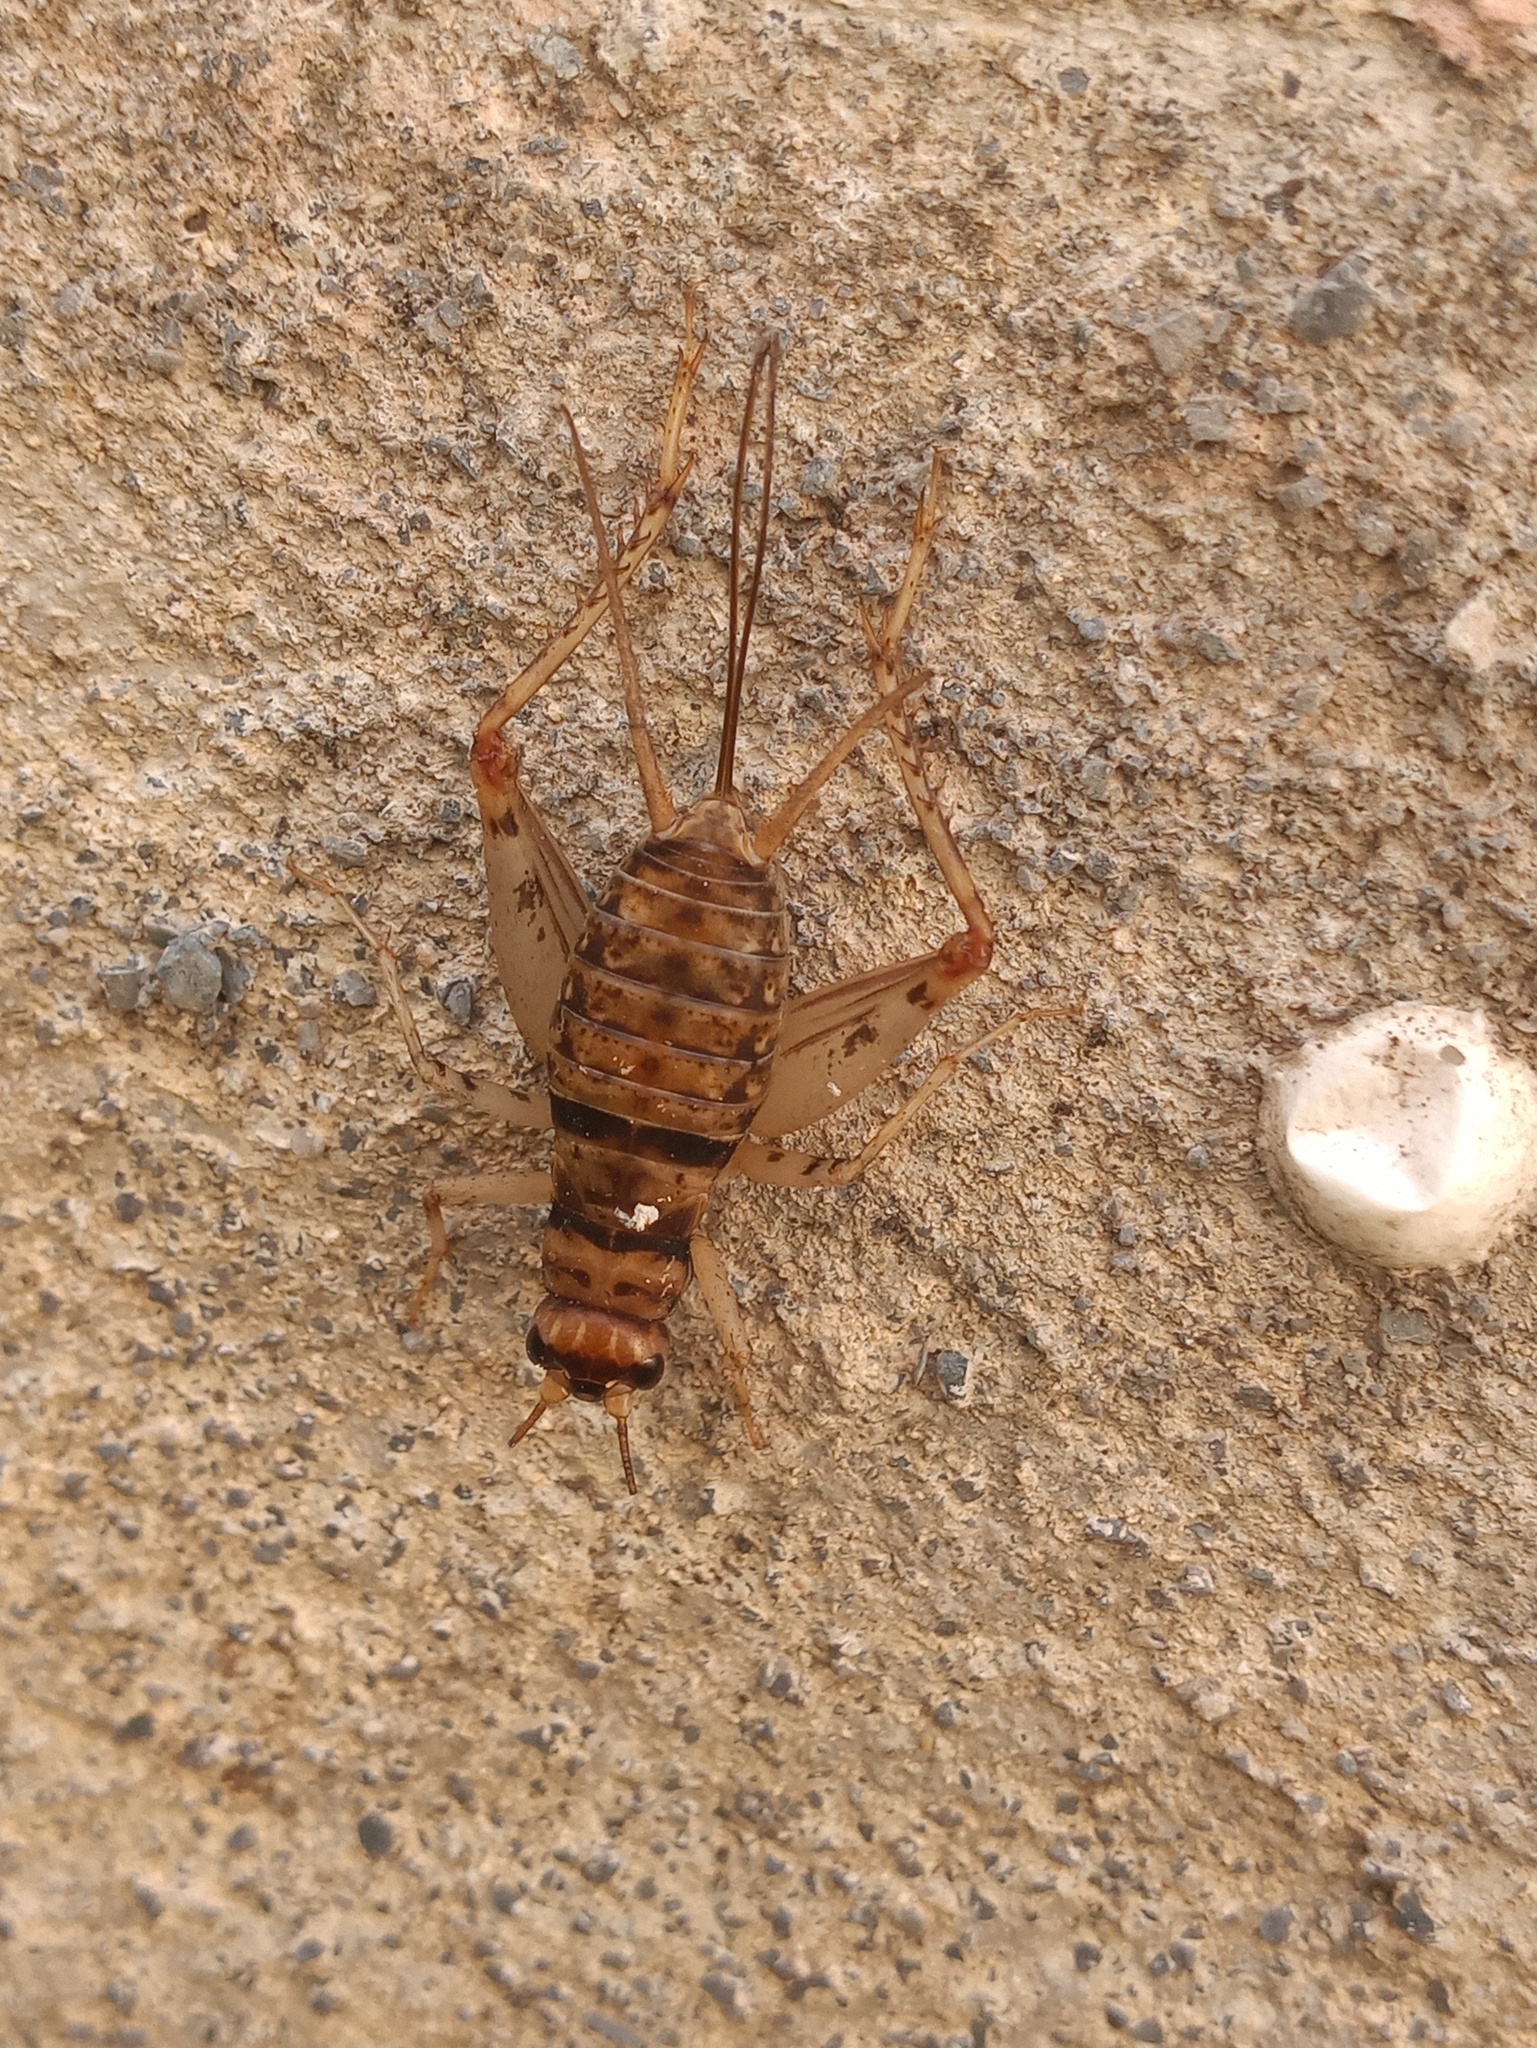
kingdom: Animalia
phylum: Arthropoda
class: Insecta
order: Orthoptera
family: Gryllidae
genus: Gryllodes
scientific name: Gryllodes sigillatus
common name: Tropical house cricket
